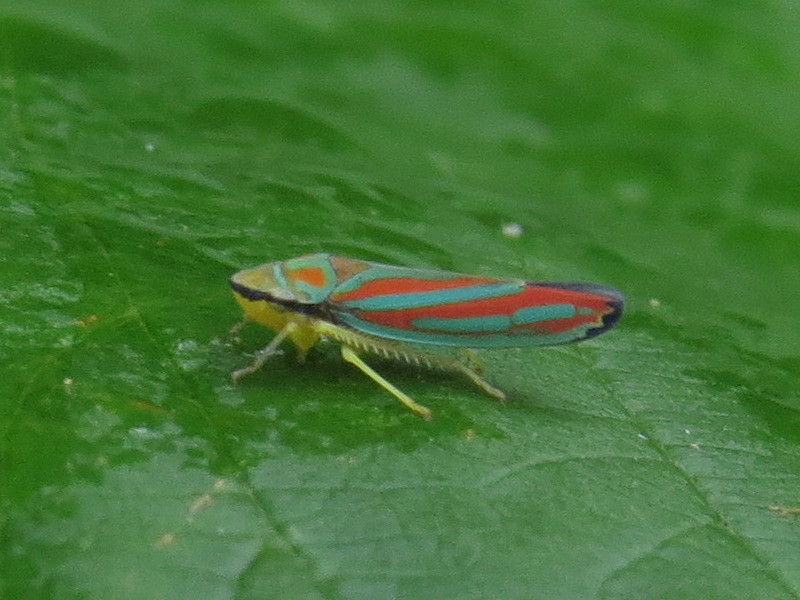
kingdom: Animalia
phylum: Arthropoda
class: Insecta
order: Hemiptera
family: Cicadellidae
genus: Graphocephala
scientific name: Graphocephala coccinea
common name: Candy-striped leafhopper
